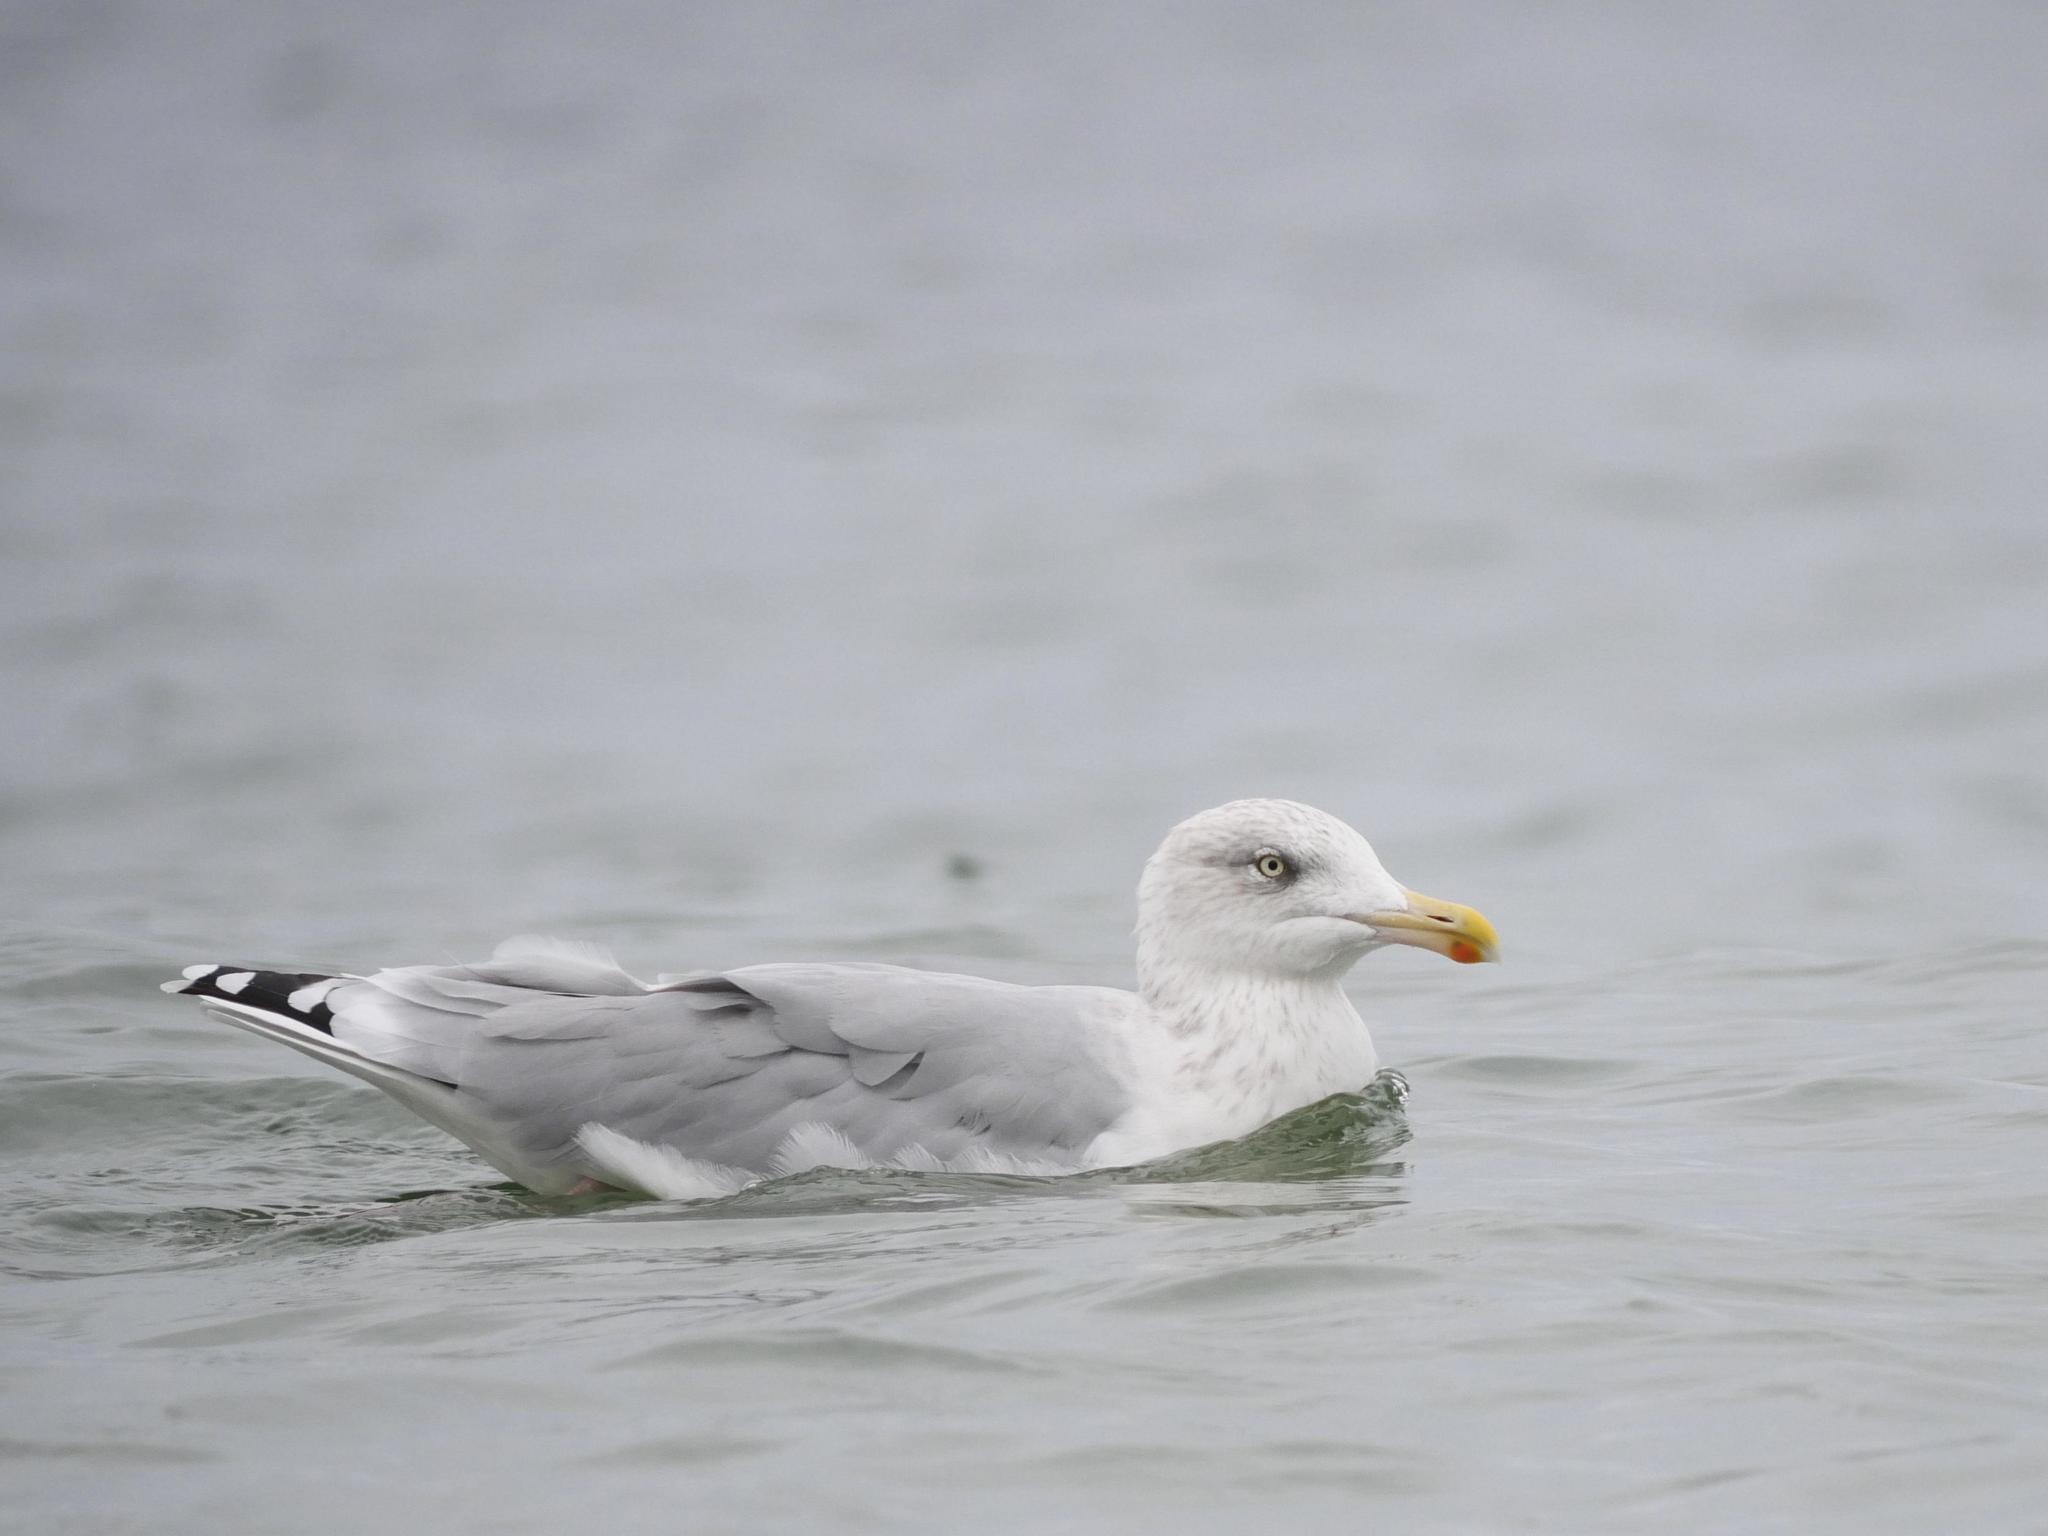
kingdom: Animalia
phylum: Chordata
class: Aves
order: Charadriiformes
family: Laridae
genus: Larus
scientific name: Larus argentatus
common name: Herring gull
